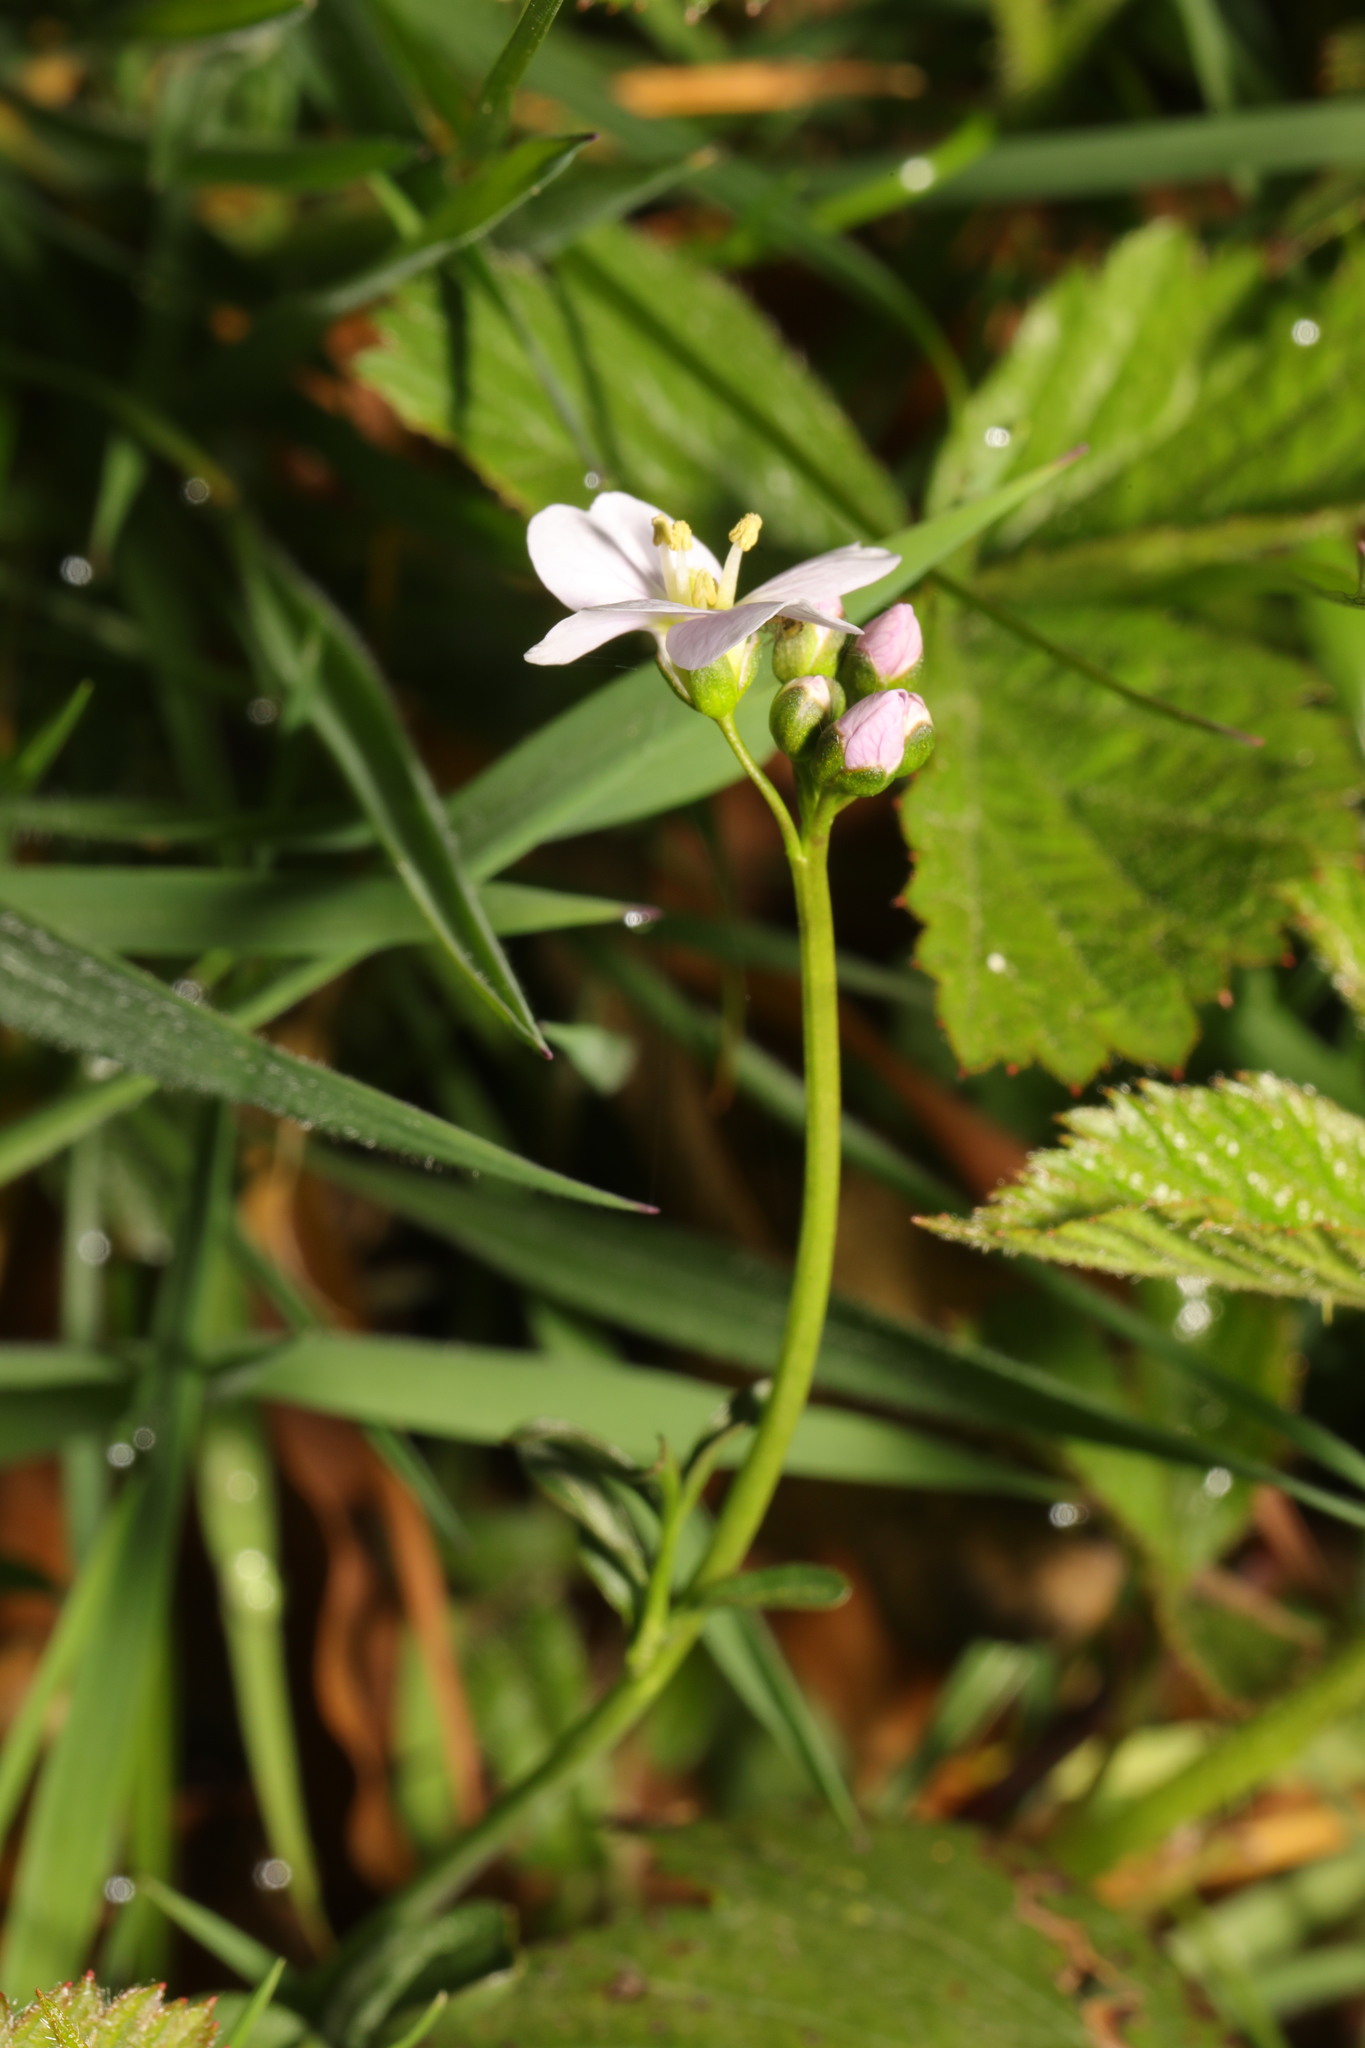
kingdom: Plantae
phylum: Tracheophyta
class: Magnoliopsida
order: Brassicales
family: Brassicaceae
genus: Cardamine
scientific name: Cardamine pratensis
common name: Cuckoo flower
